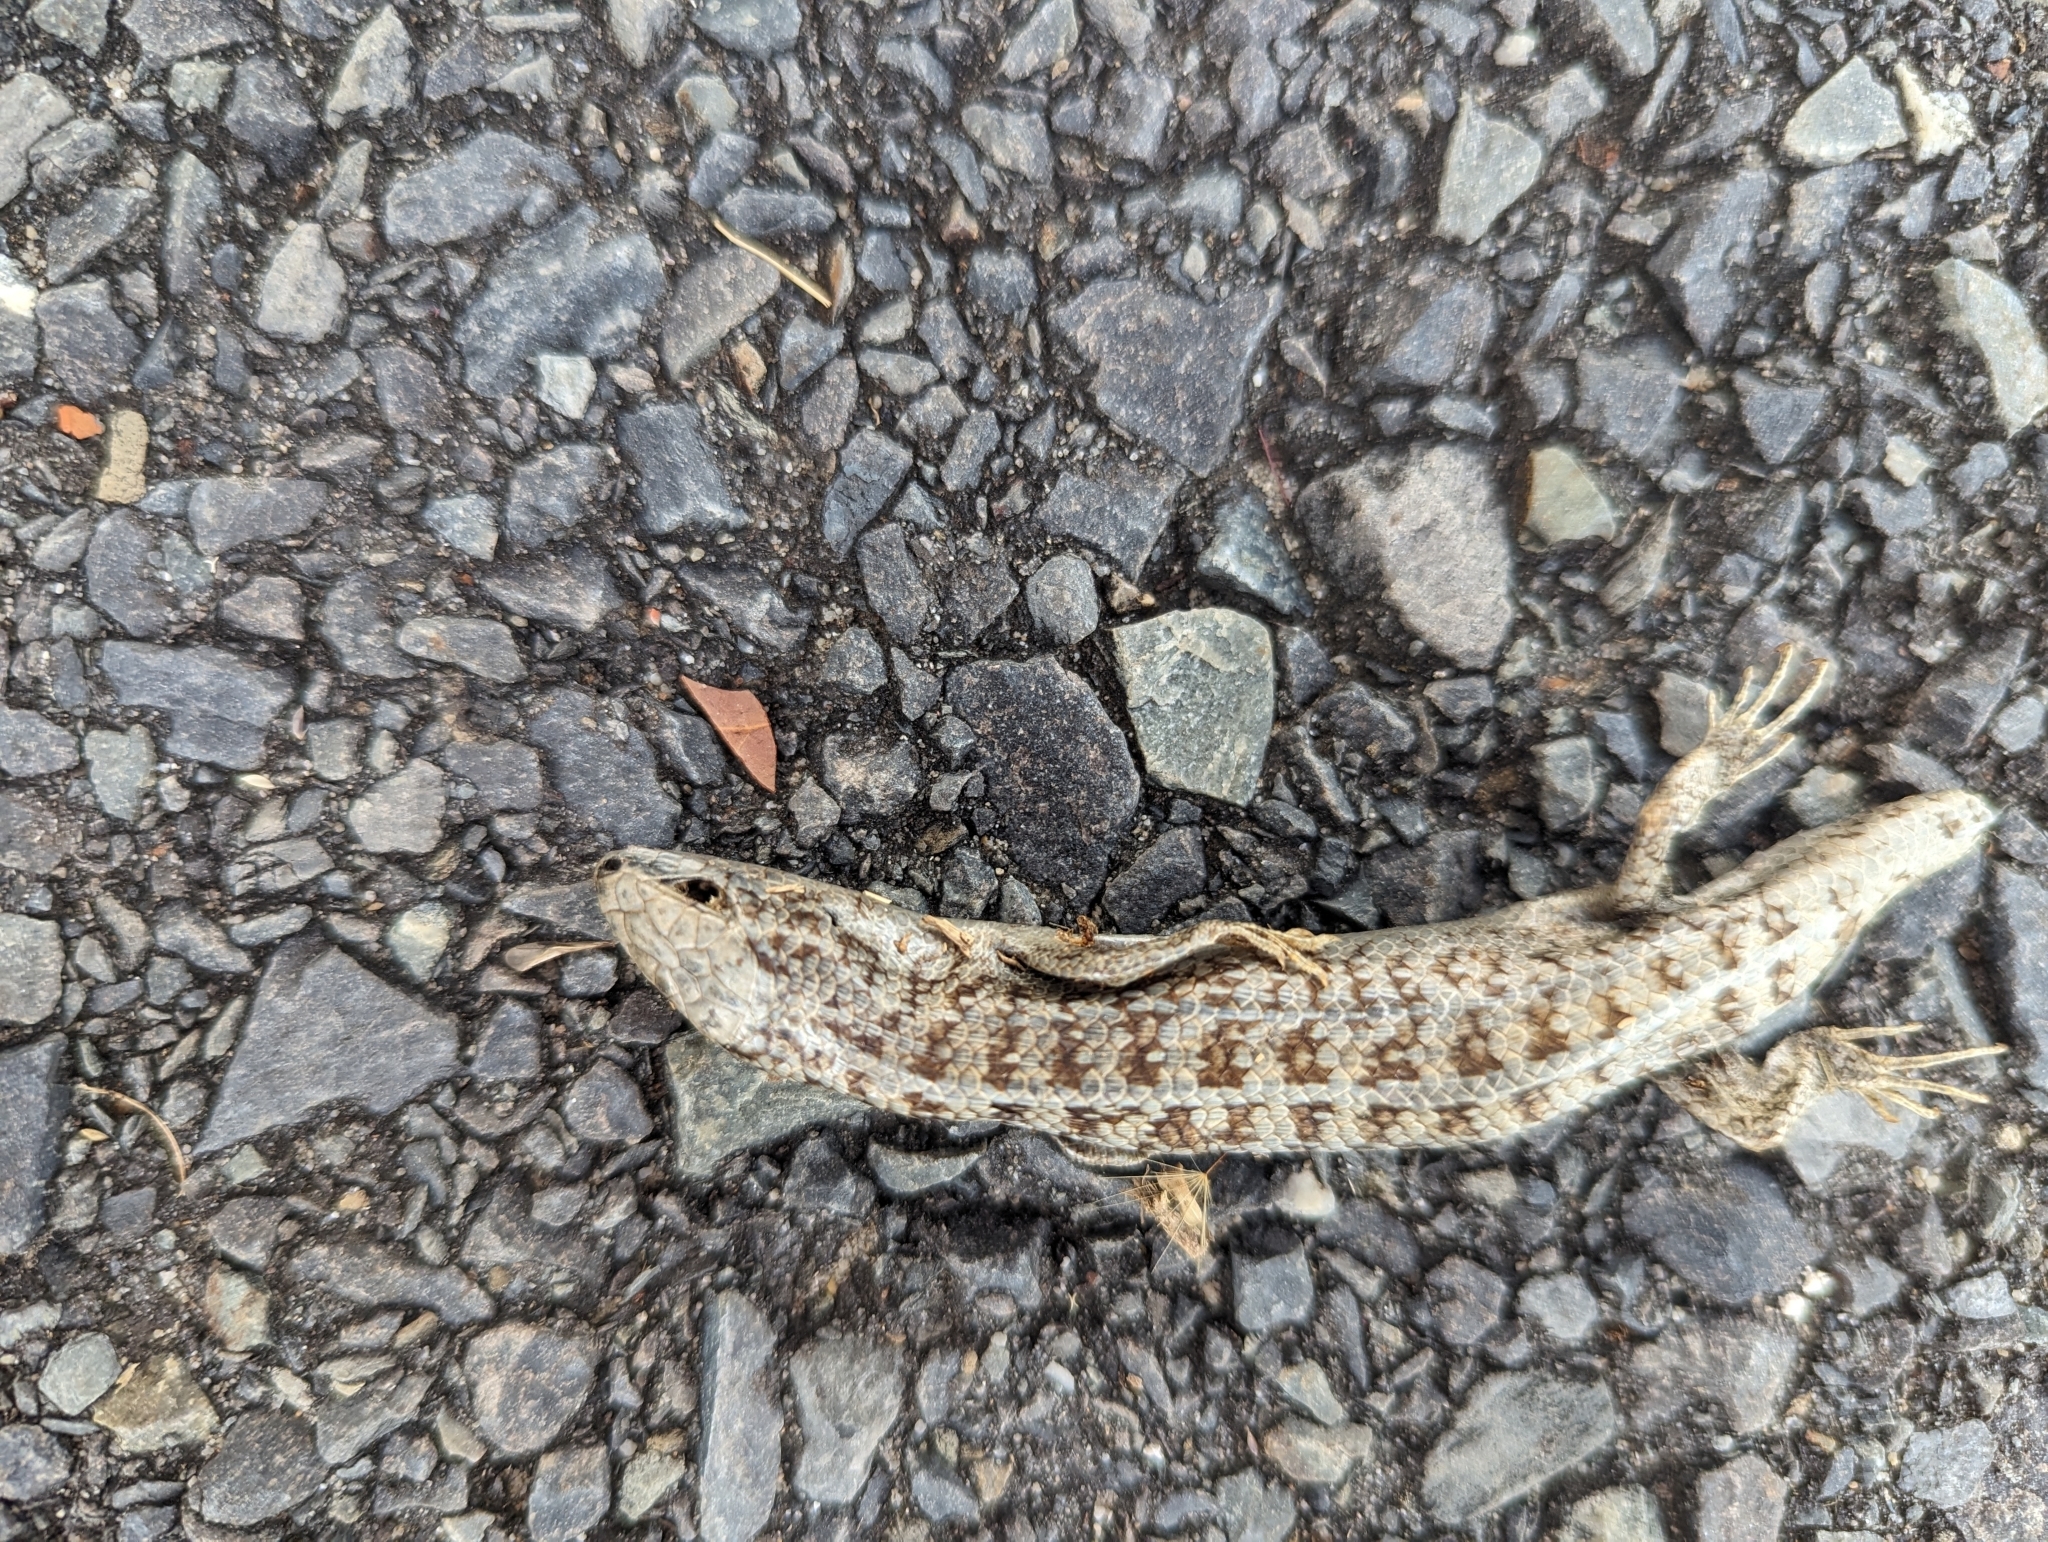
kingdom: Animalia
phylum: Chordata
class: Squamata
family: Scincidae
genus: Trachylepis
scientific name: Trachylepis capensis
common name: Cape skink
